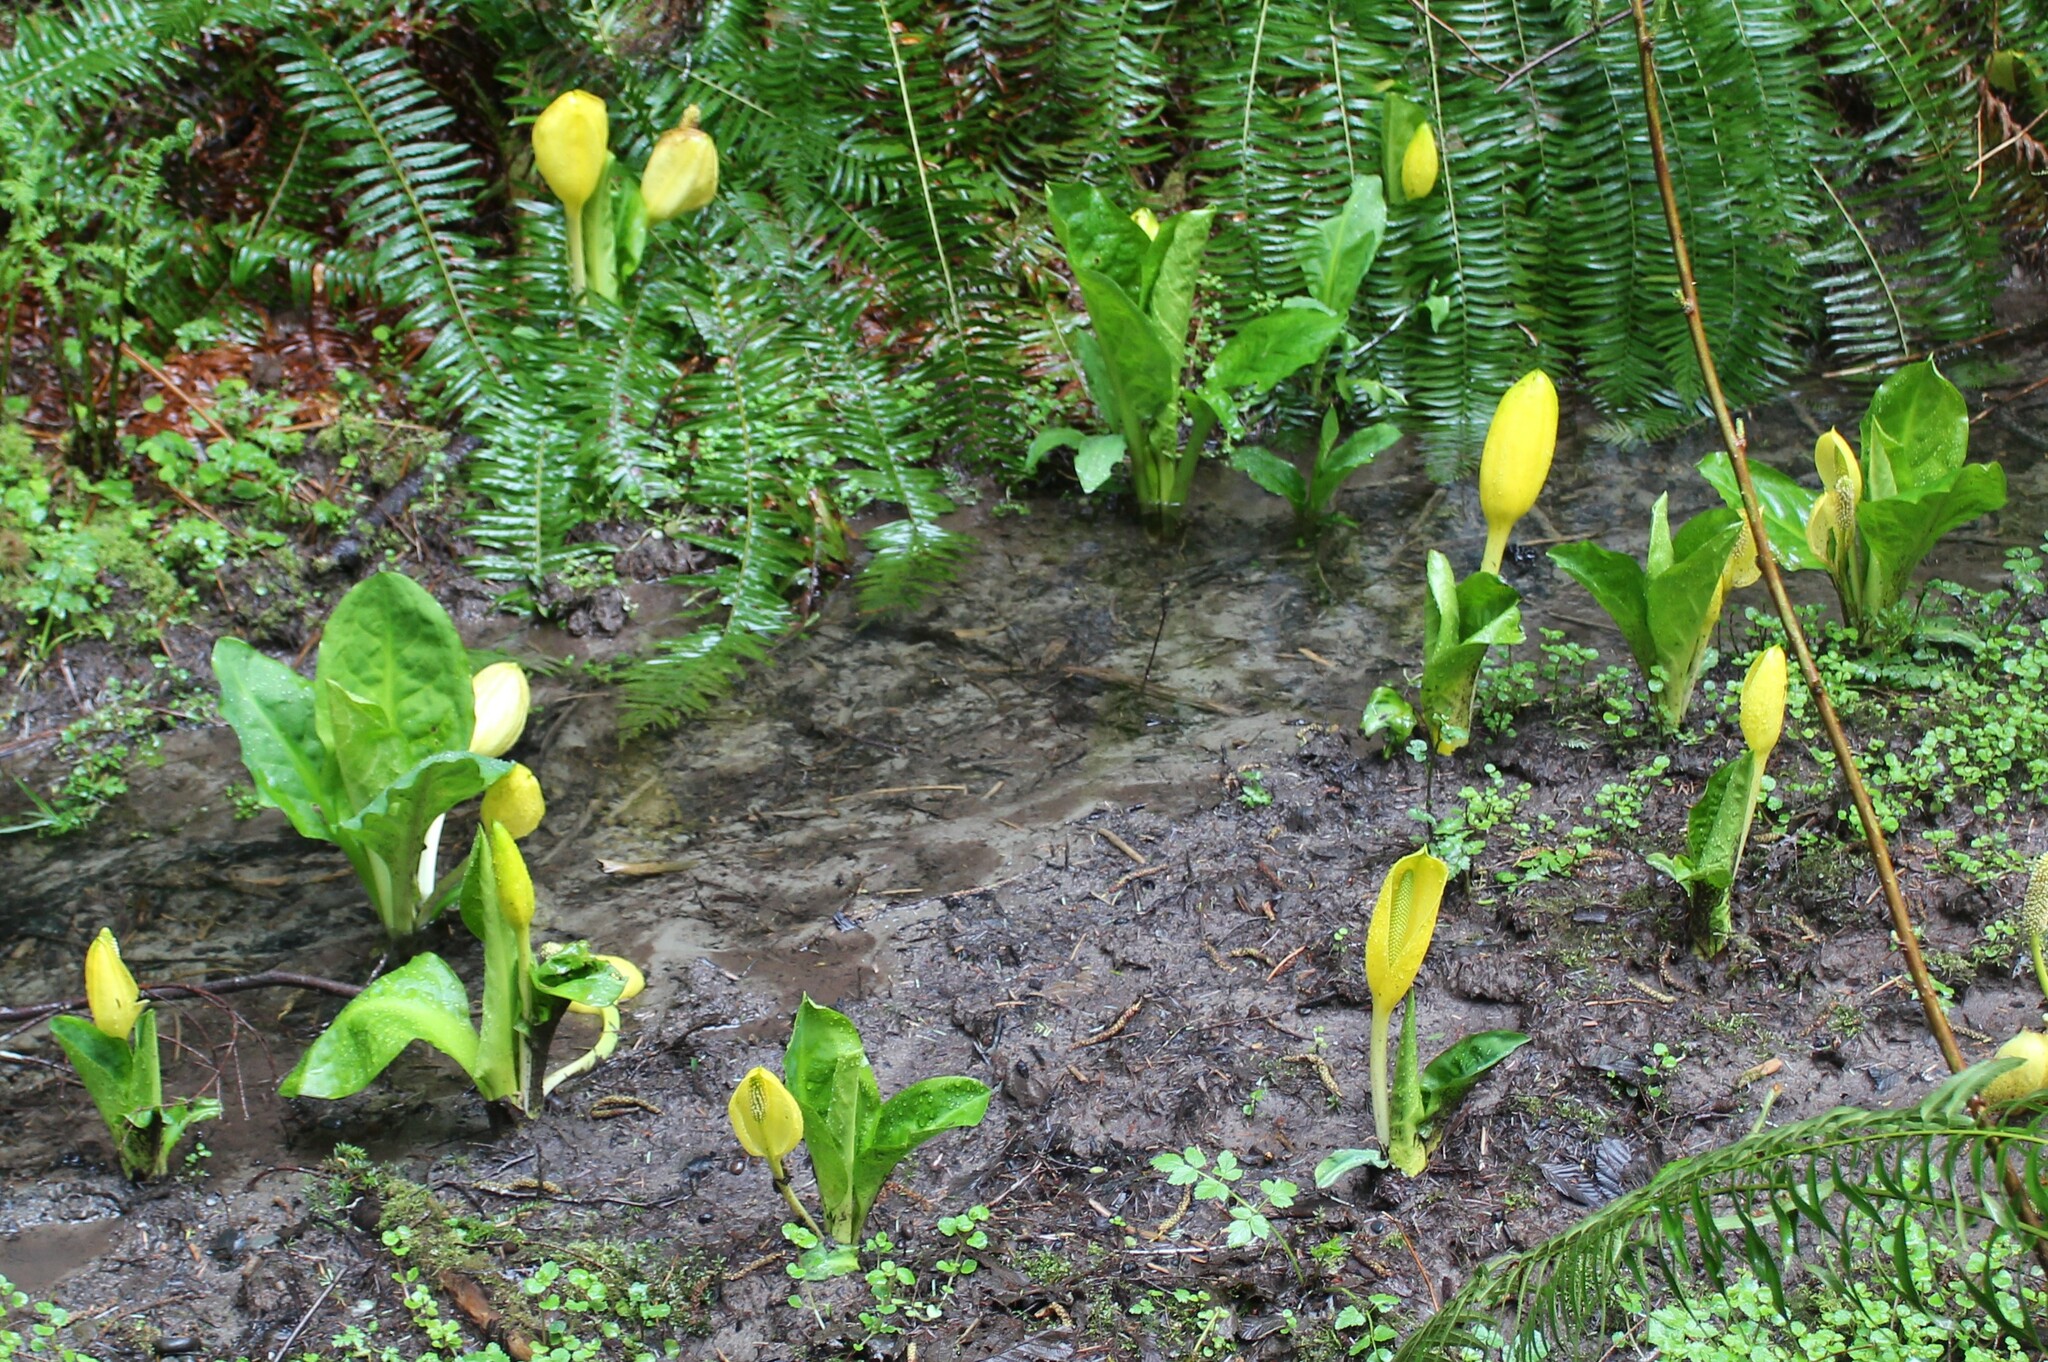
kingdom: Plantae
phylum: Tracheophyta
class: Liliopsida
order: Alismatales
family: Araceae
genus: Lysichiton
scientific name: Lysichiton americanus
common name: American skunk cabbage
